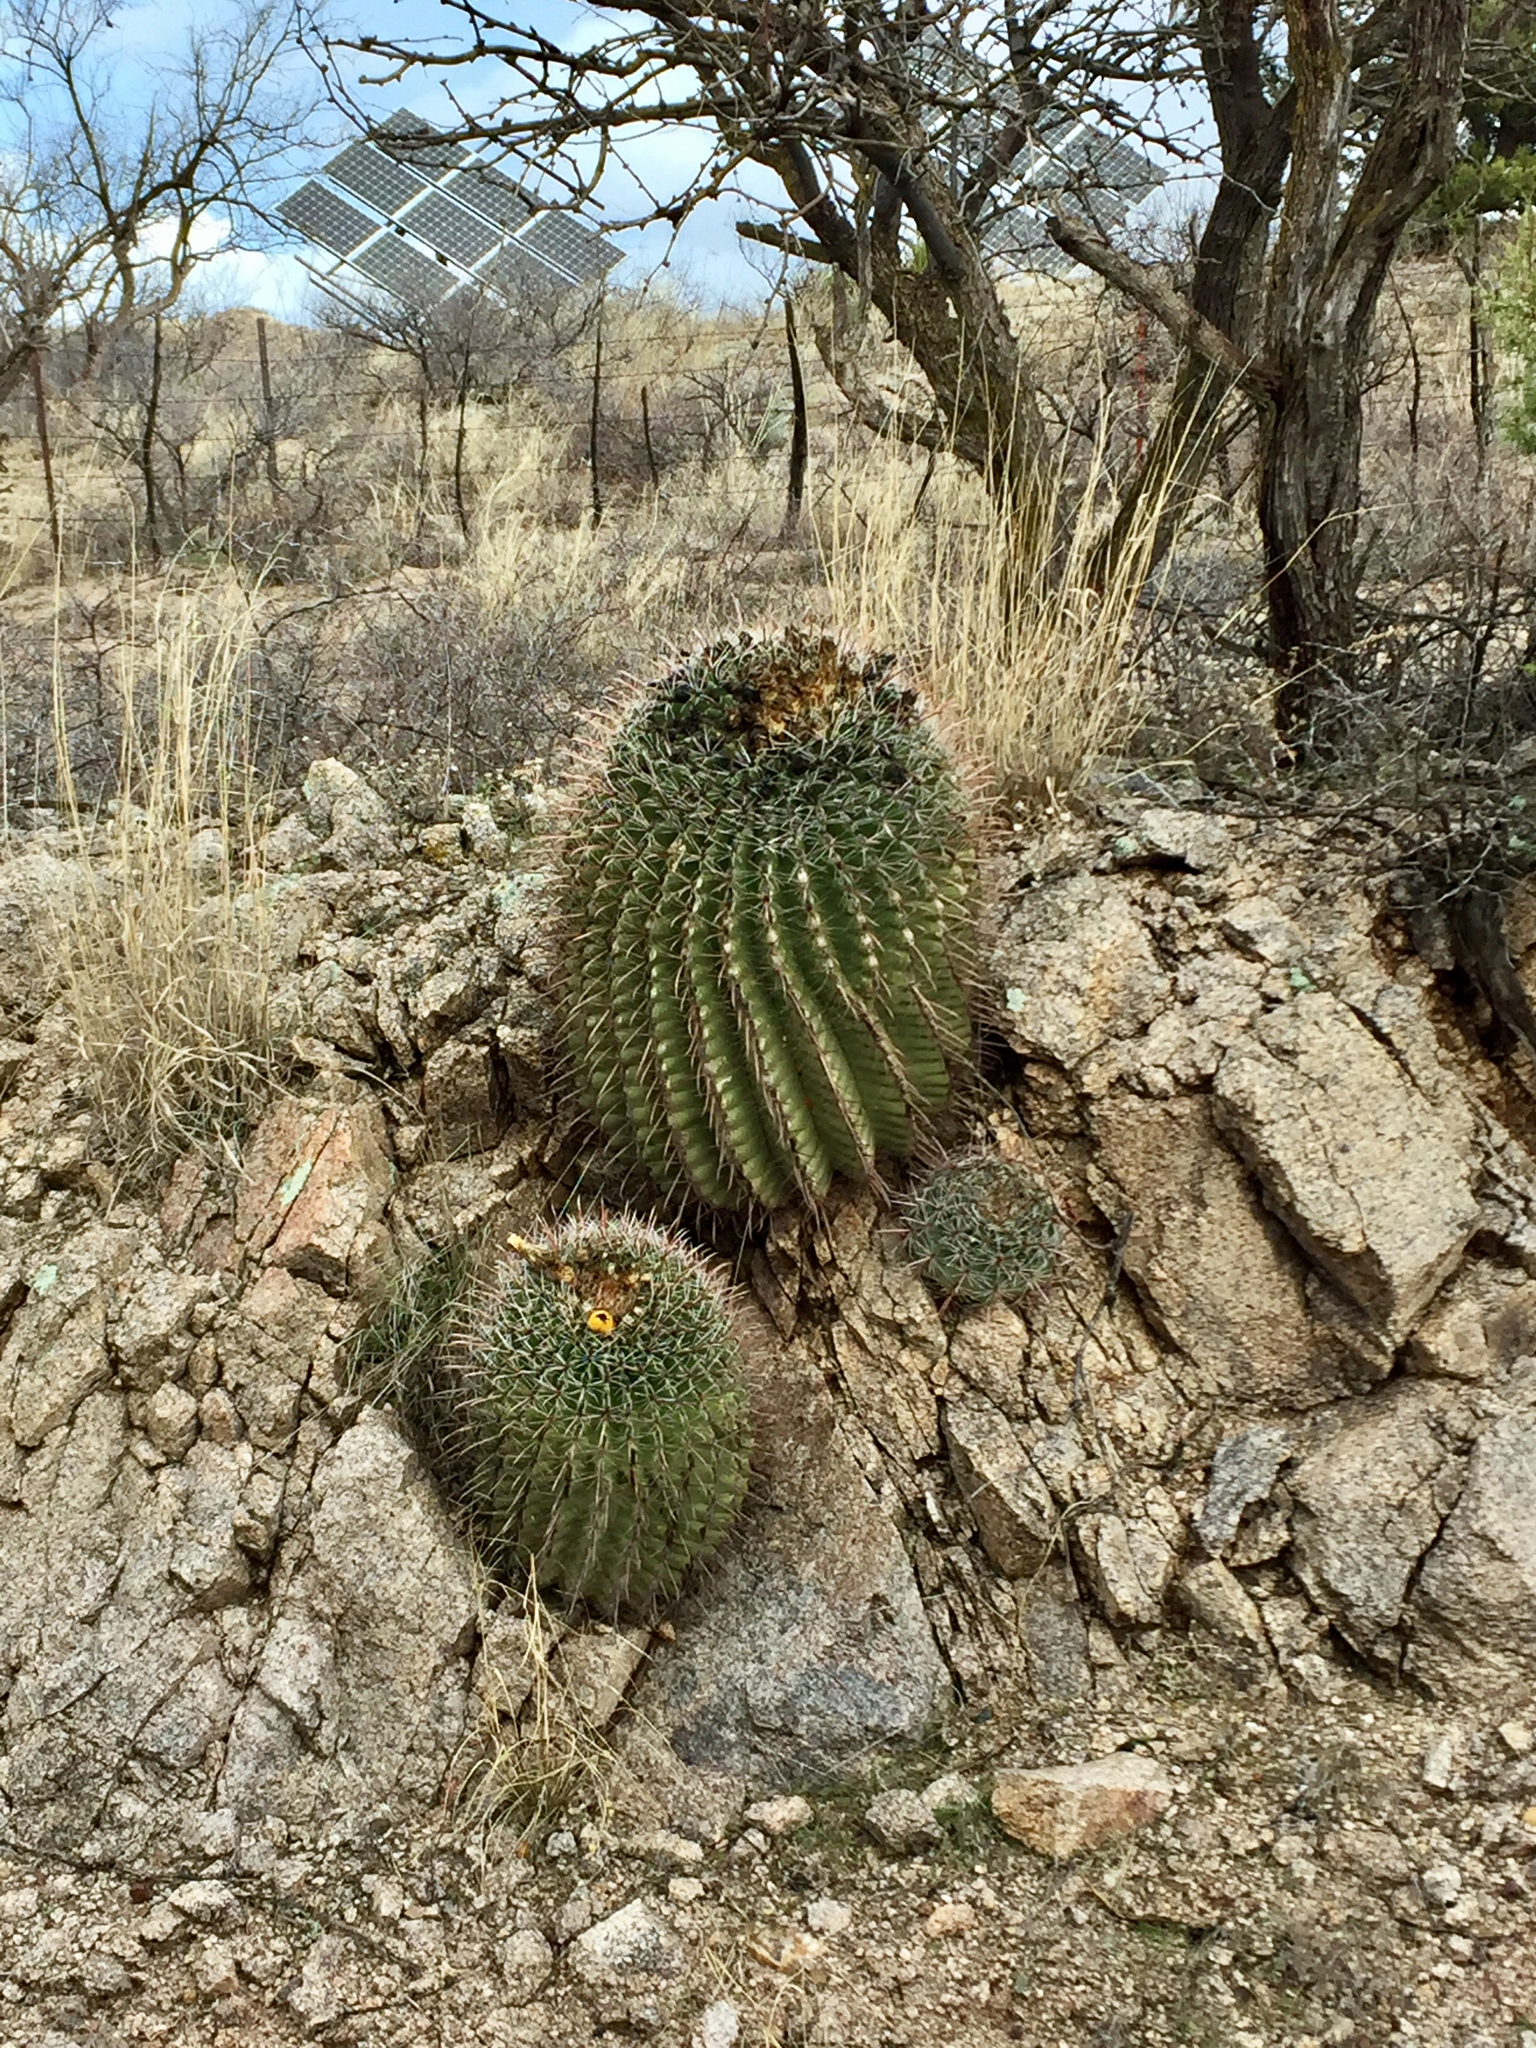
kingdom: Plantae
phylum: Tracheophyta
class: Magnoliopsida
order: Caryophyllales
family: Cactaceae
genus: Ferocactus
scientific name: Ferocactus wislizeni
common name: Candy barrel cactus
